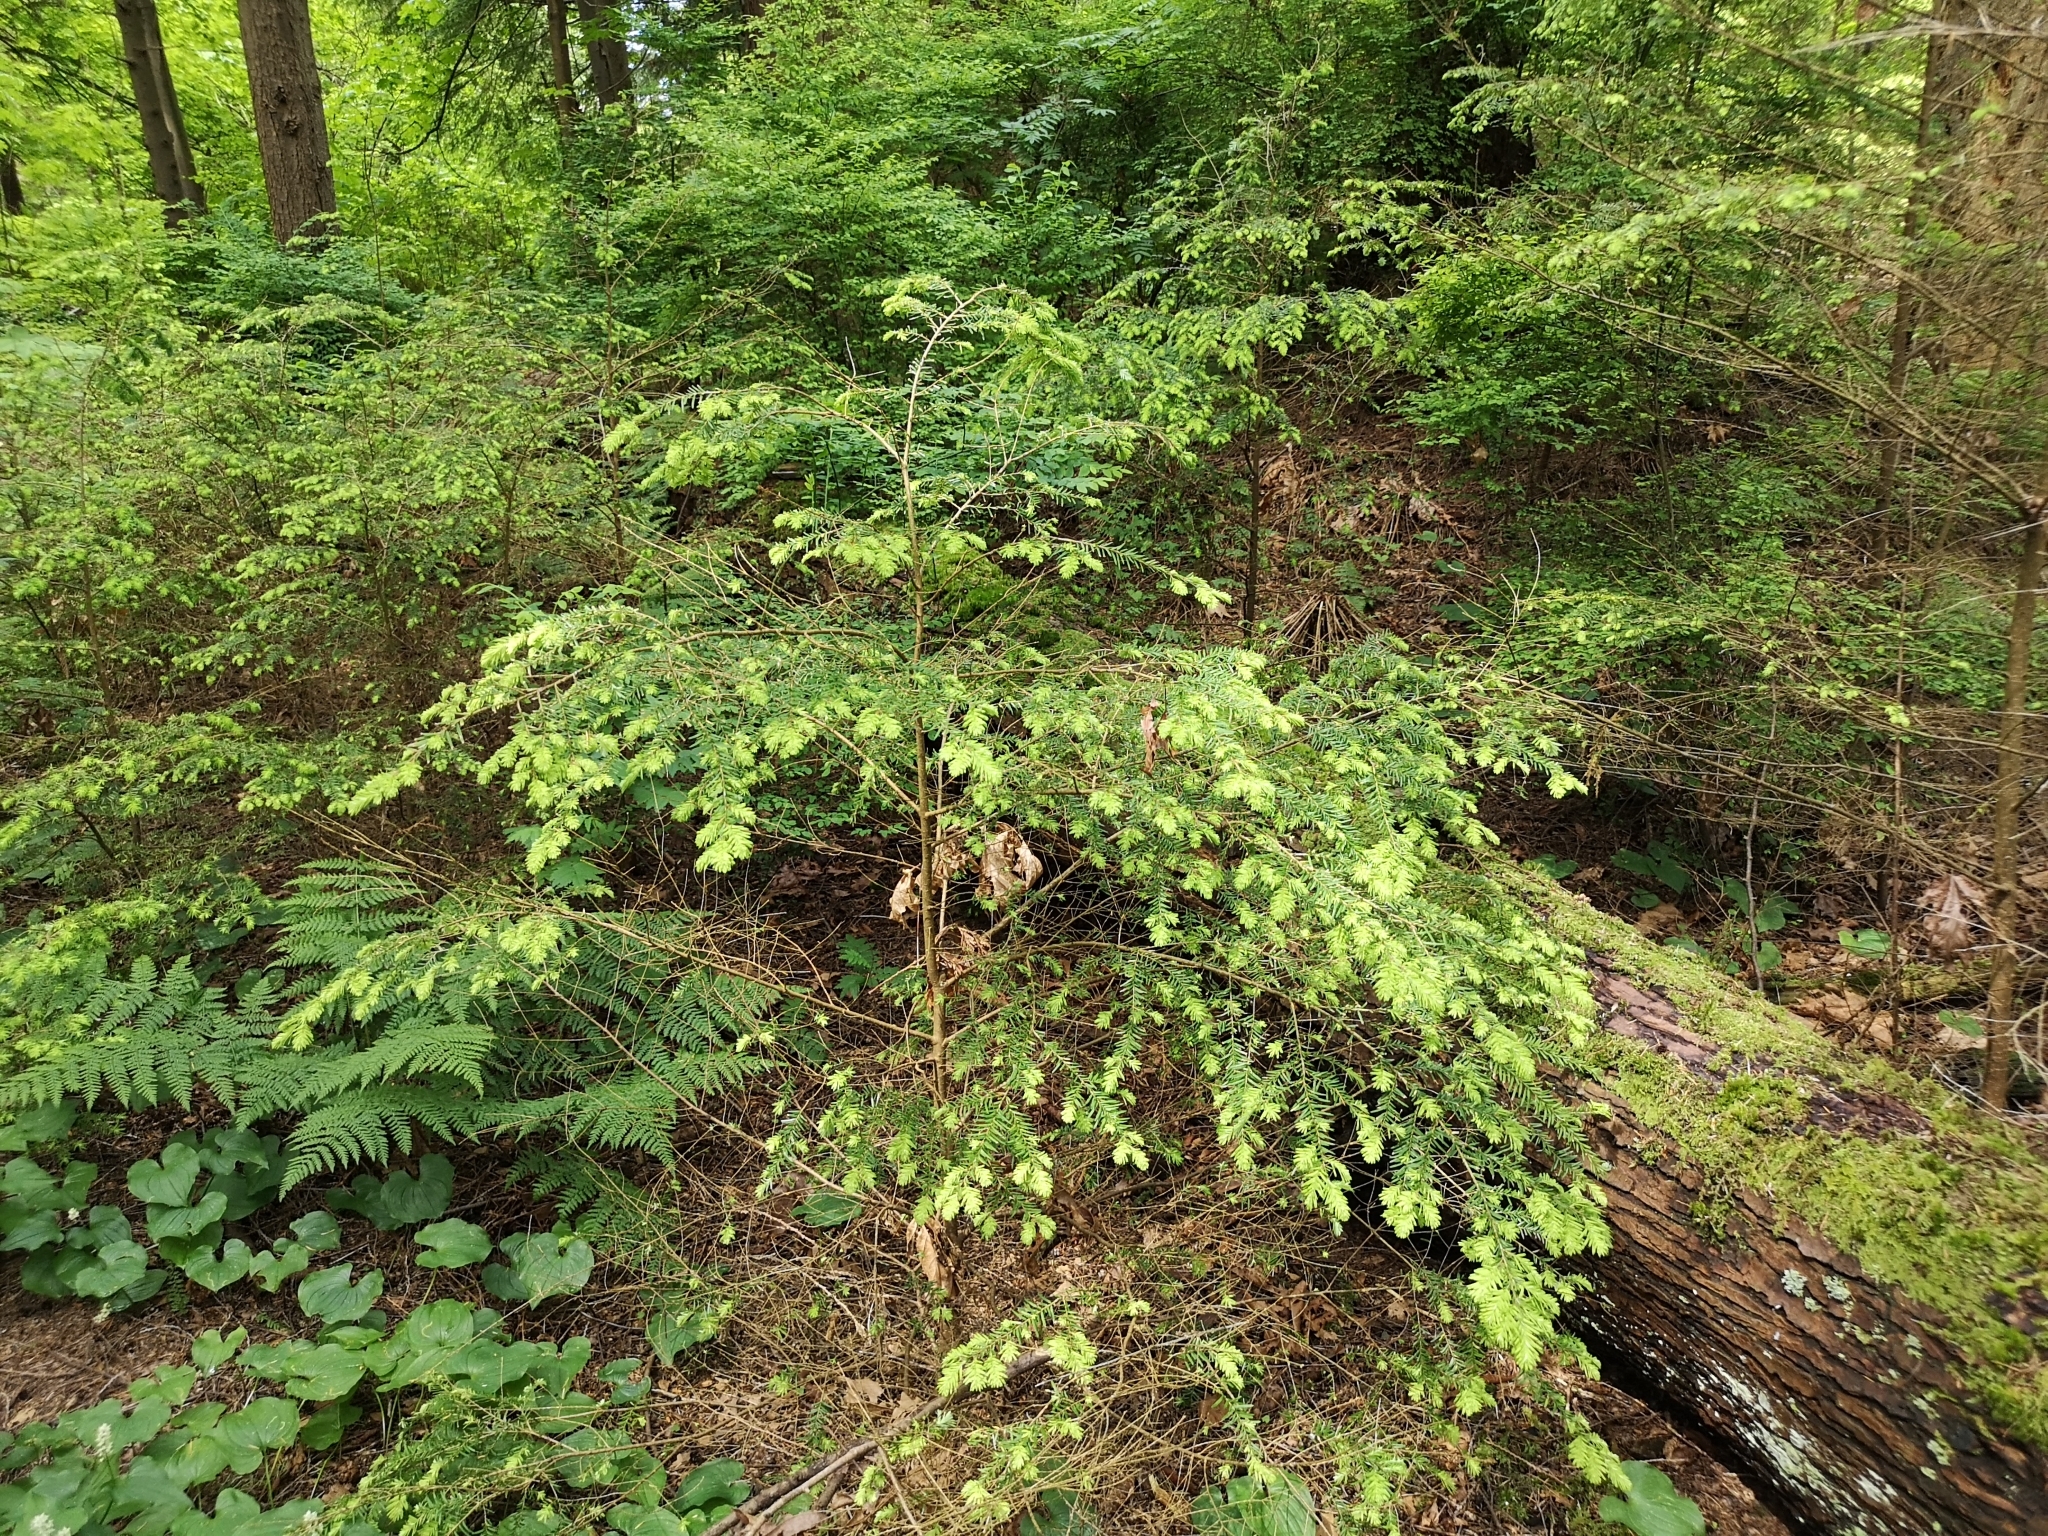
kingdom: Plantae
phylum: Tracheophyta
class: Pinopsida
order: Pinales
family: Pinaceae
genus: Tsuga
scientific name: Tsuga heterophylla
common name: Western hemlock
